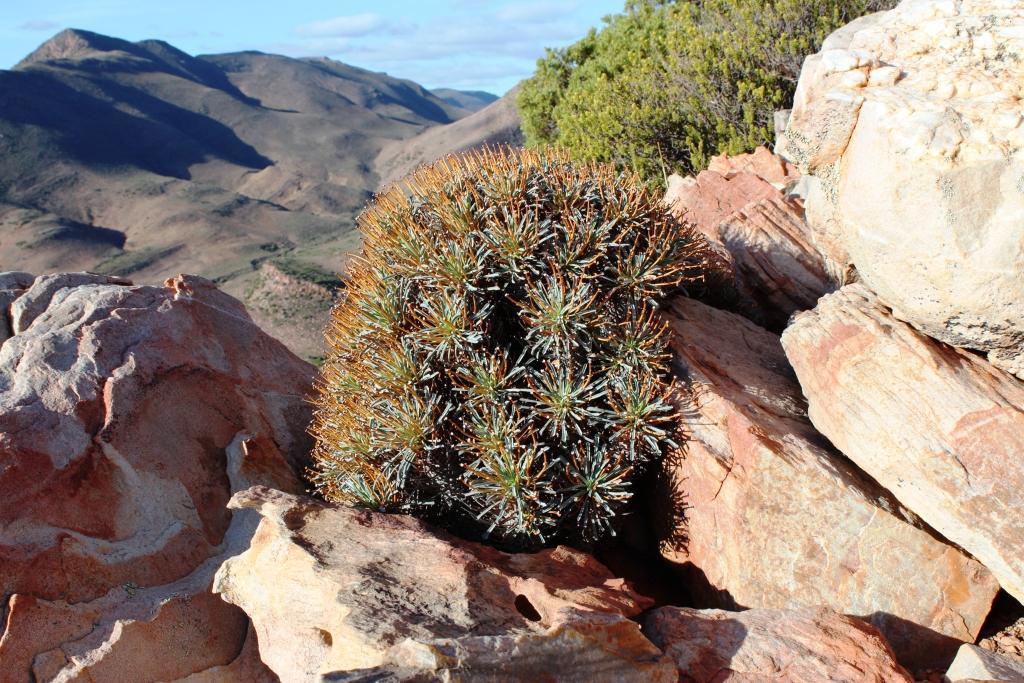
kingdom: Plantae
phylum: Tracheophyta
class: Magnoliopsida
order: Malpighiales
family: Euphorbiaceae
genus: Euphorbia
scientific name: Euphorbia multifolia
